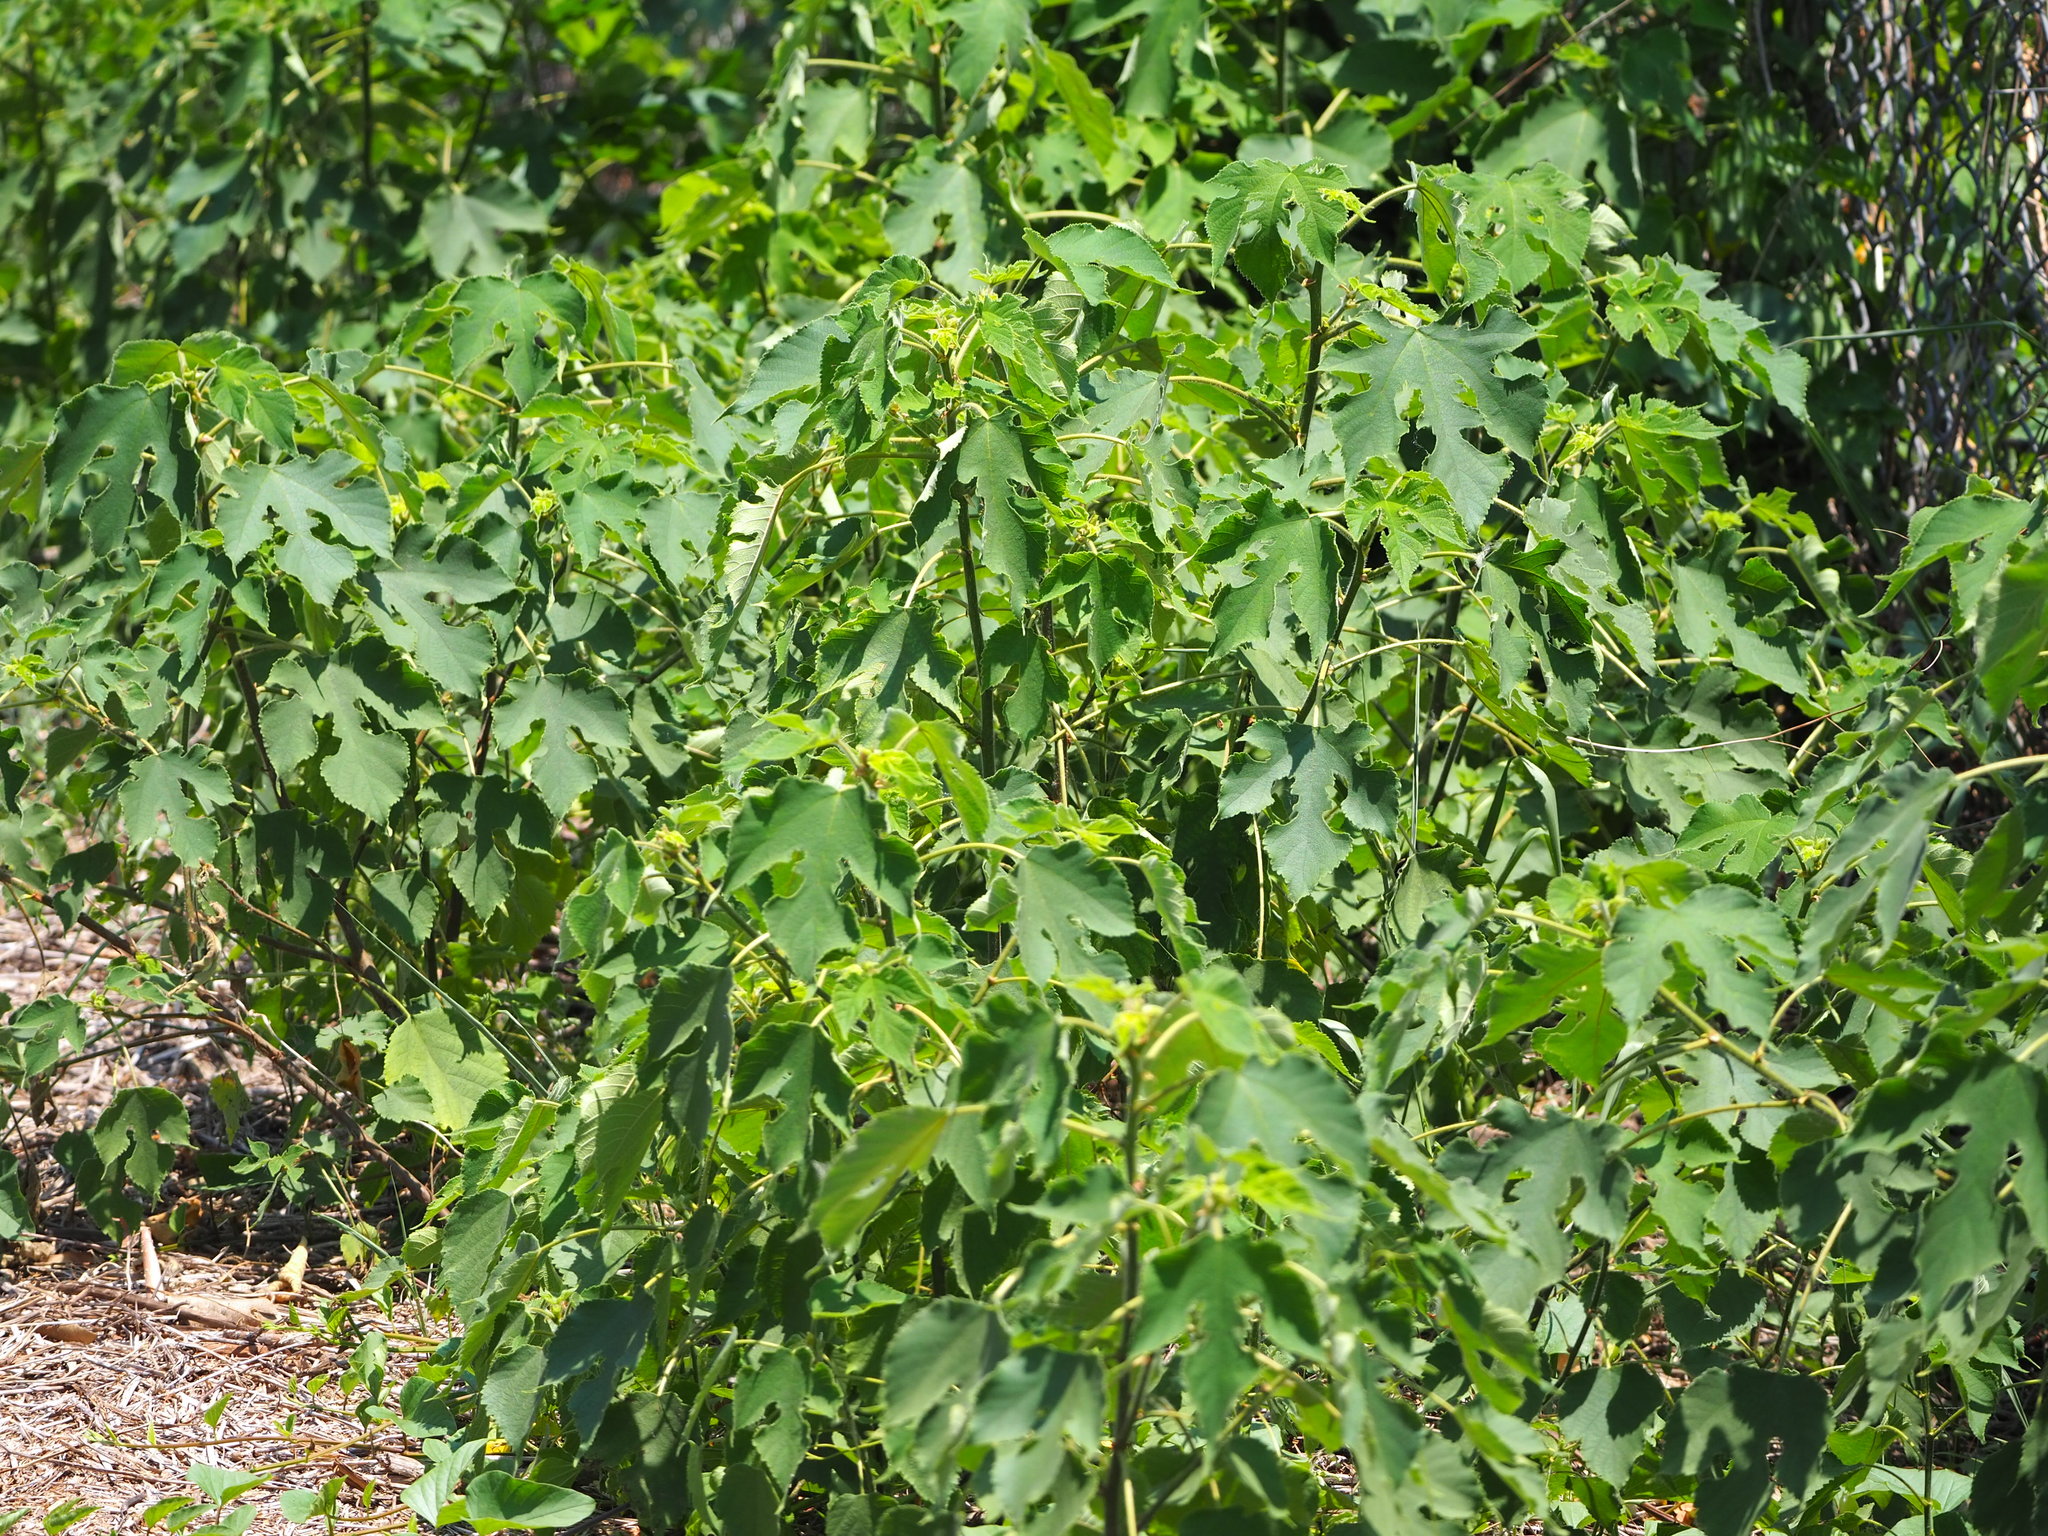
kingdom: Plantae
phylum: Tracheophyta
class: Magnoliopsida
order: Rosales
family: Moraceae
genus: Broussonetia
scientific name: Broussonetia papyrifera
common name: Paper mulberry
